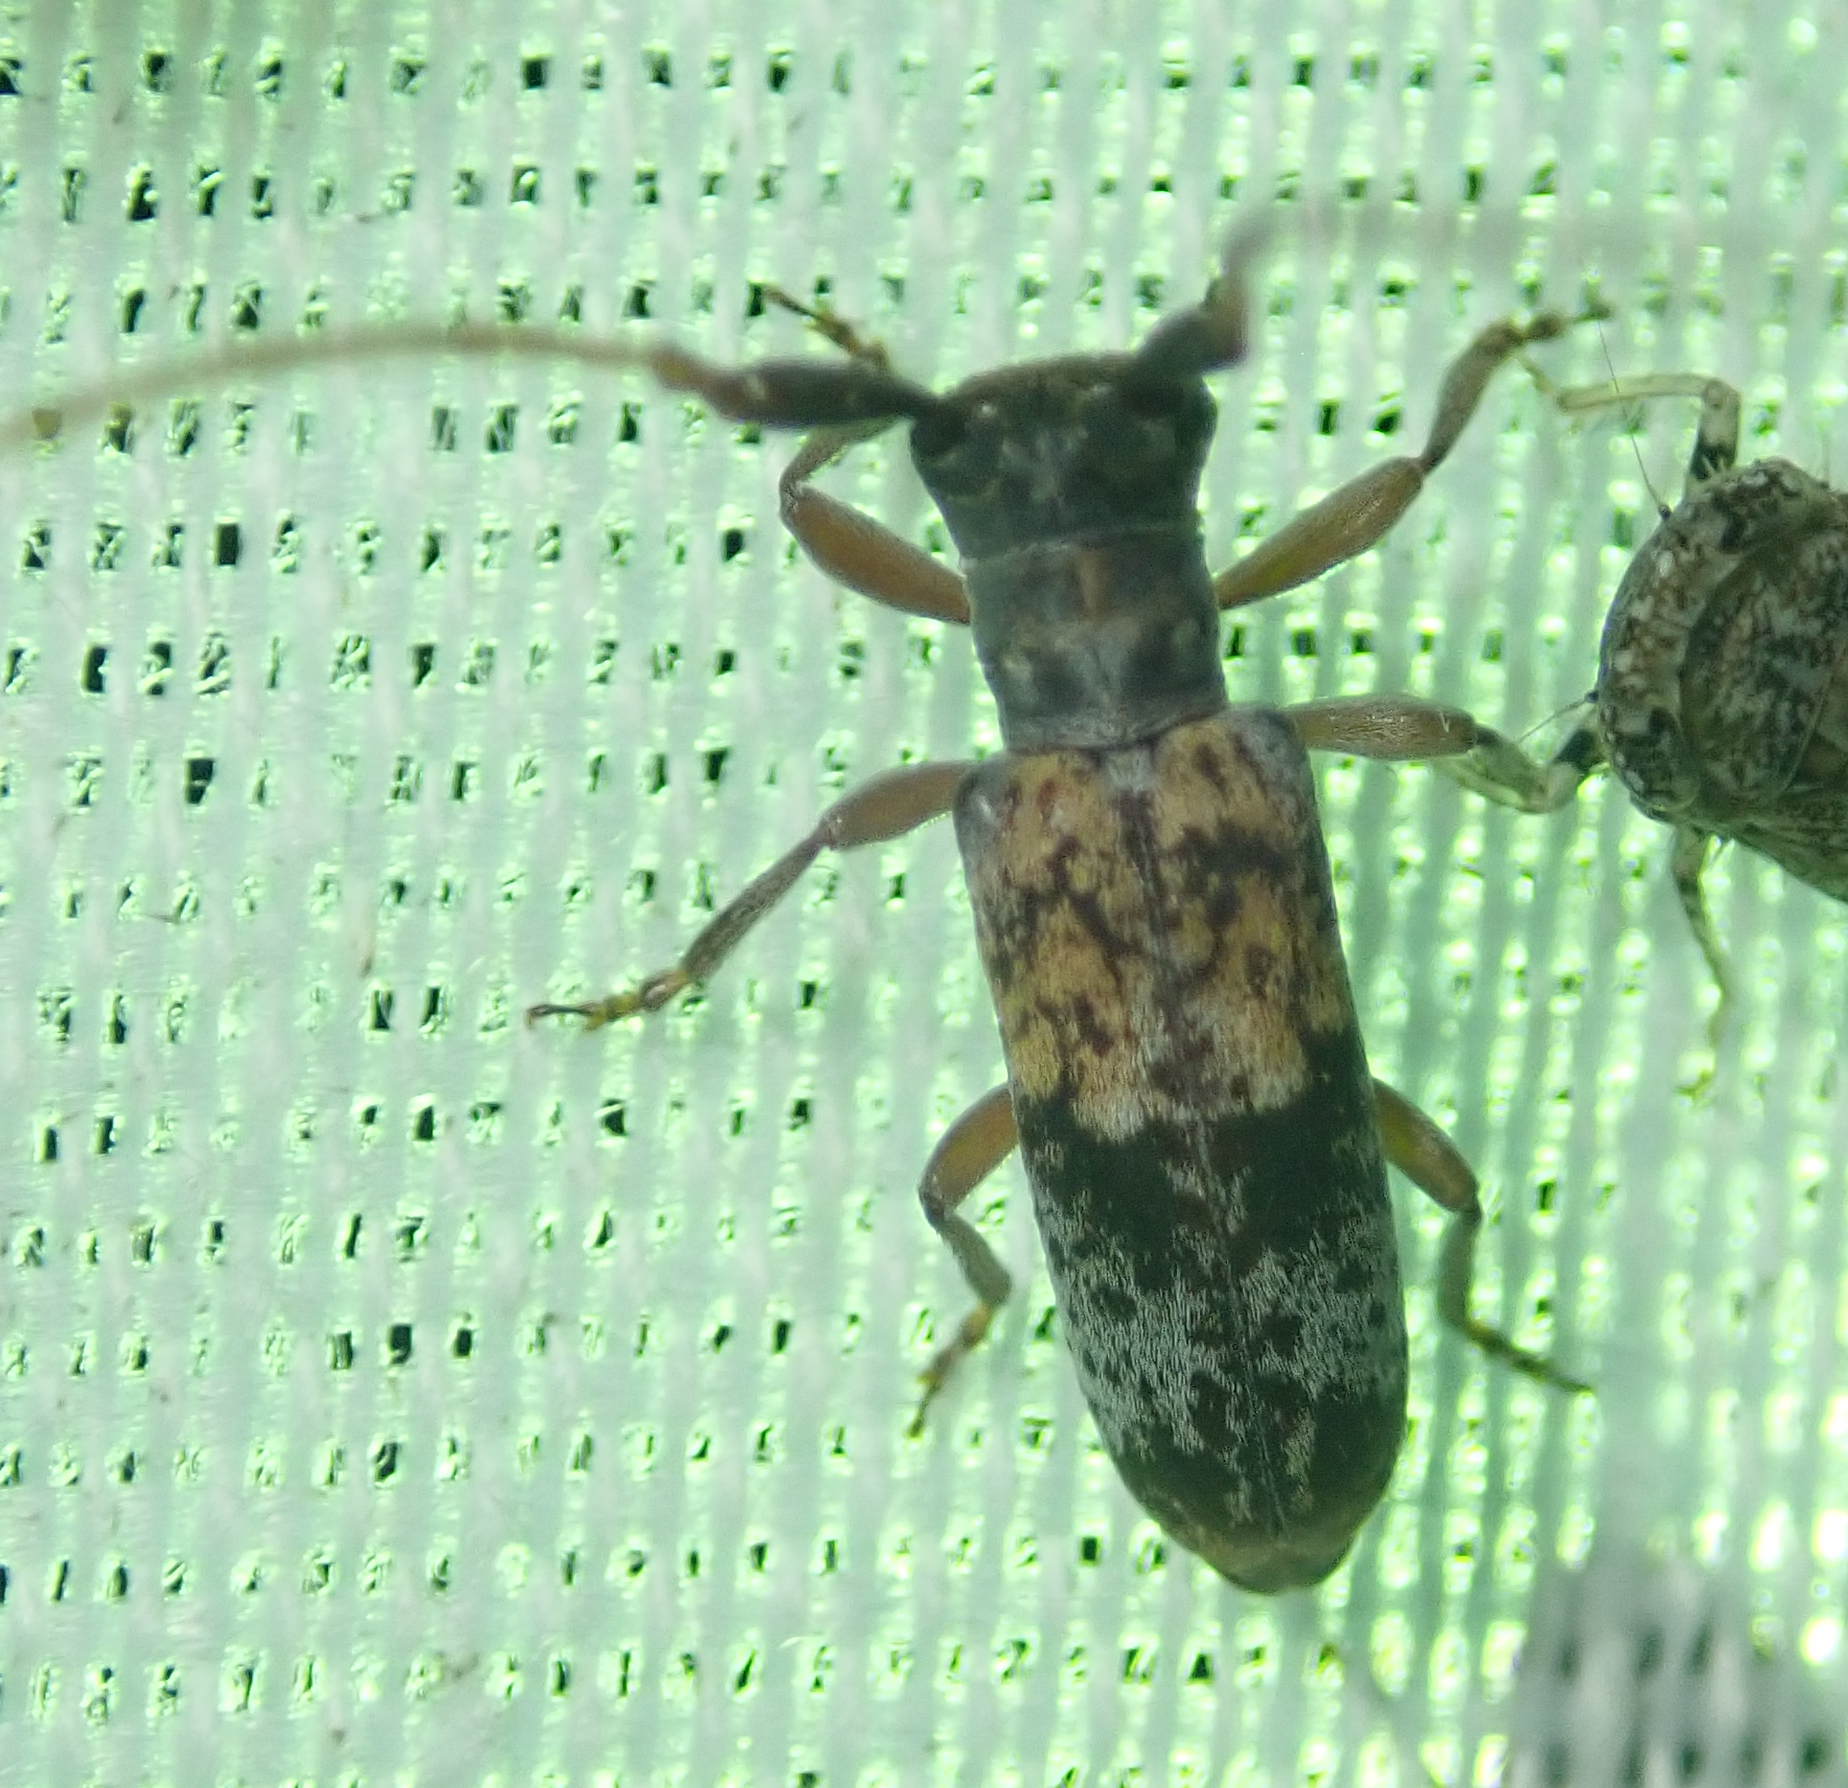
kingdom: Animalia
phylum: Arthropoda
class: Insecta
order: Coleoptera
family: Cerambycidae
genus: Eunidia
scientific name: Eunidia subtergrisea
